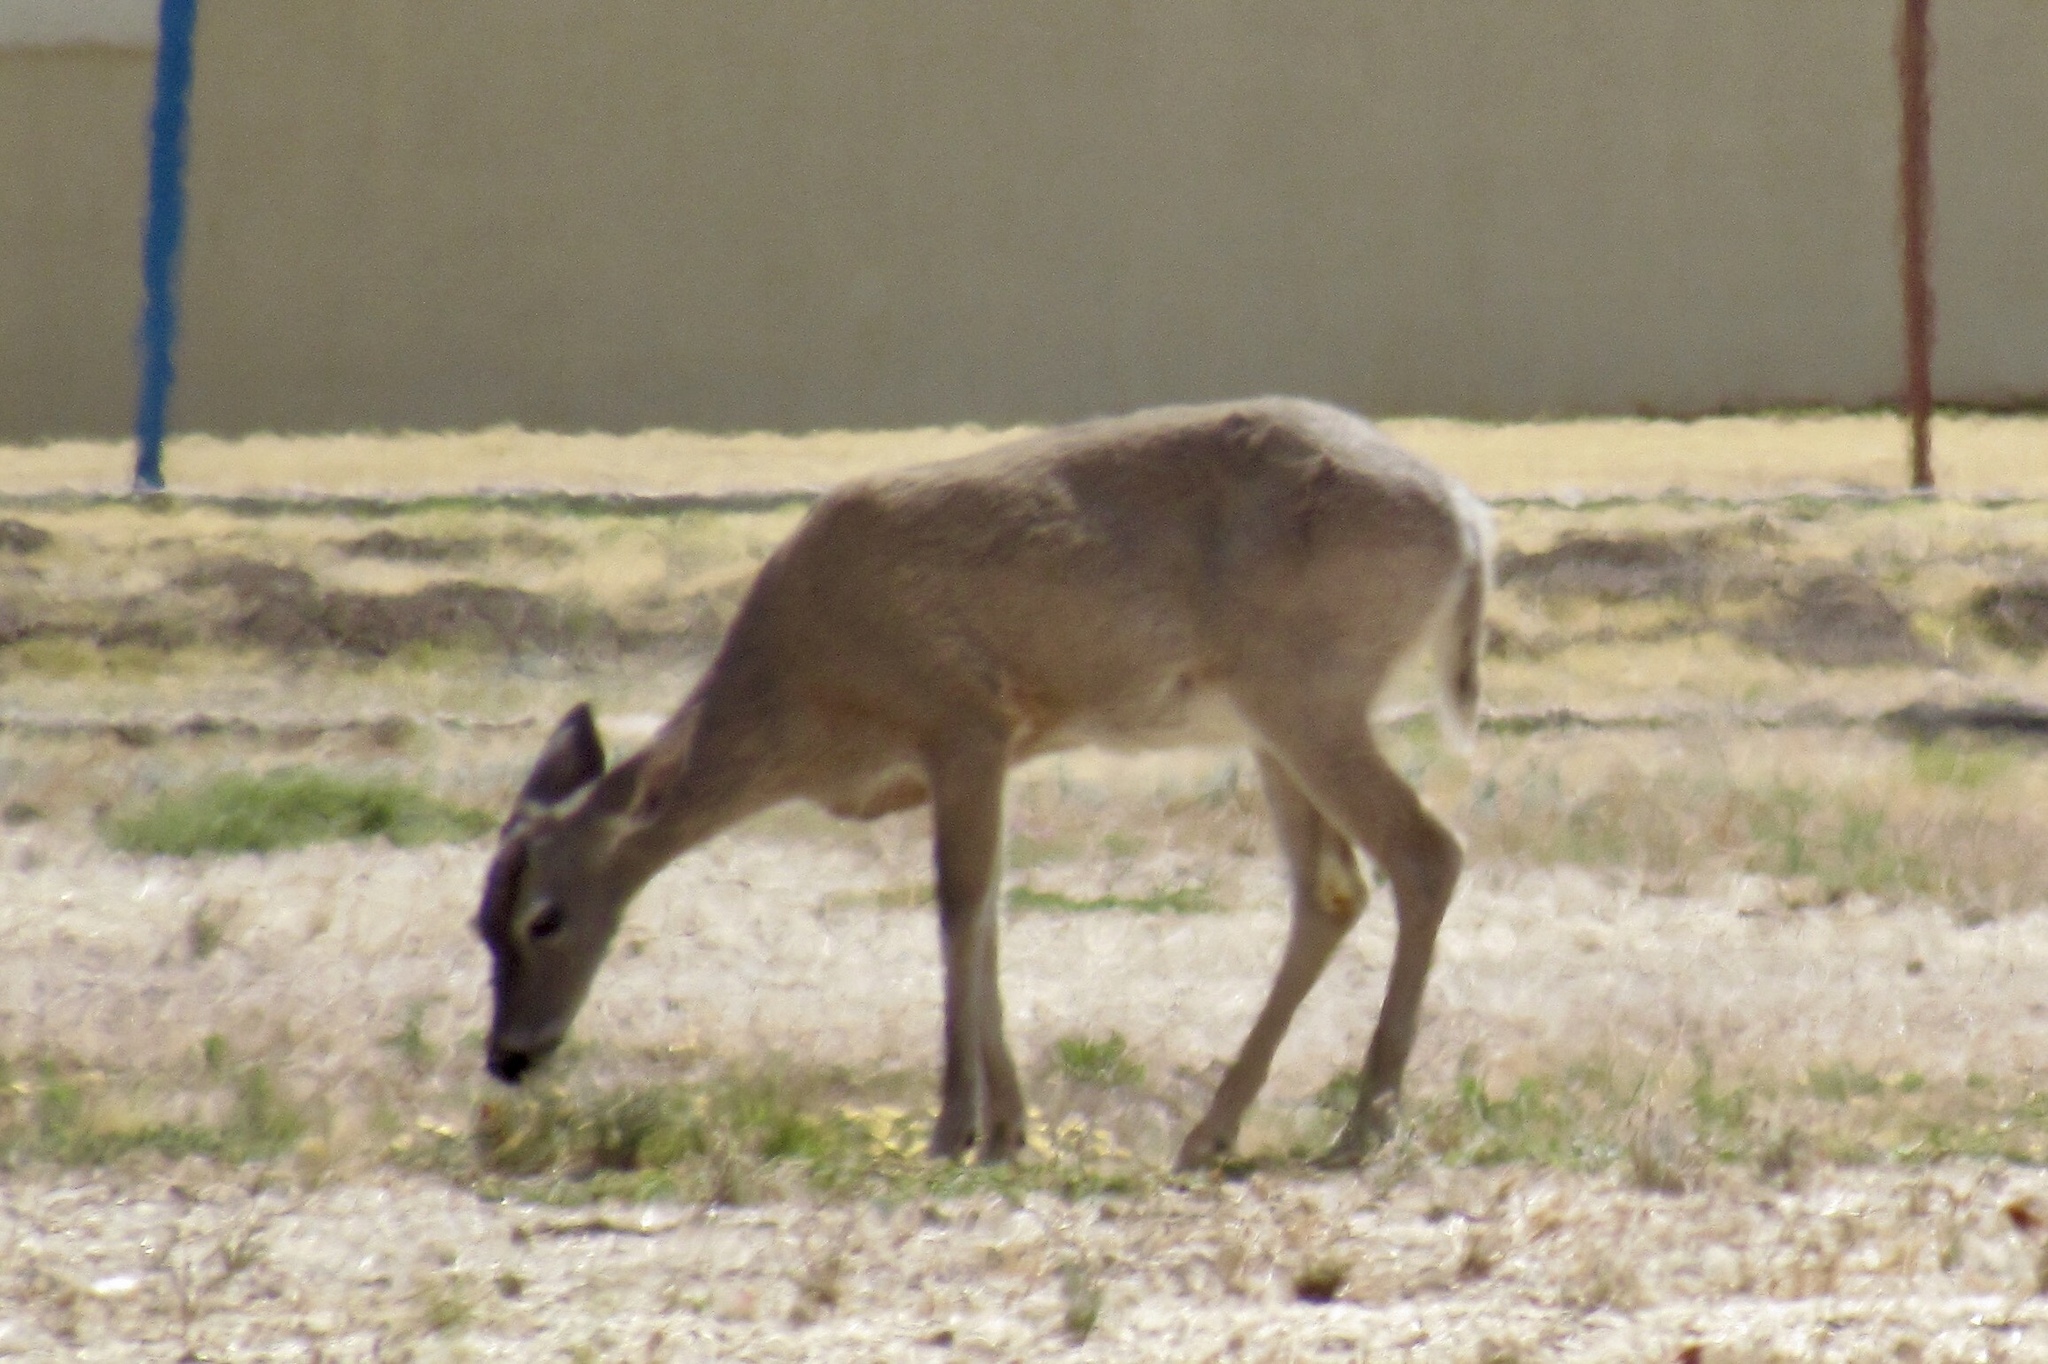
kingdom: Animalia
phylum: Chordata
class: Mammalia
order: Artiodactyla
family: Cervidae
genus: Odocoileus
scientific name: Odocoileus virginianus
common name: White-tailed deer
